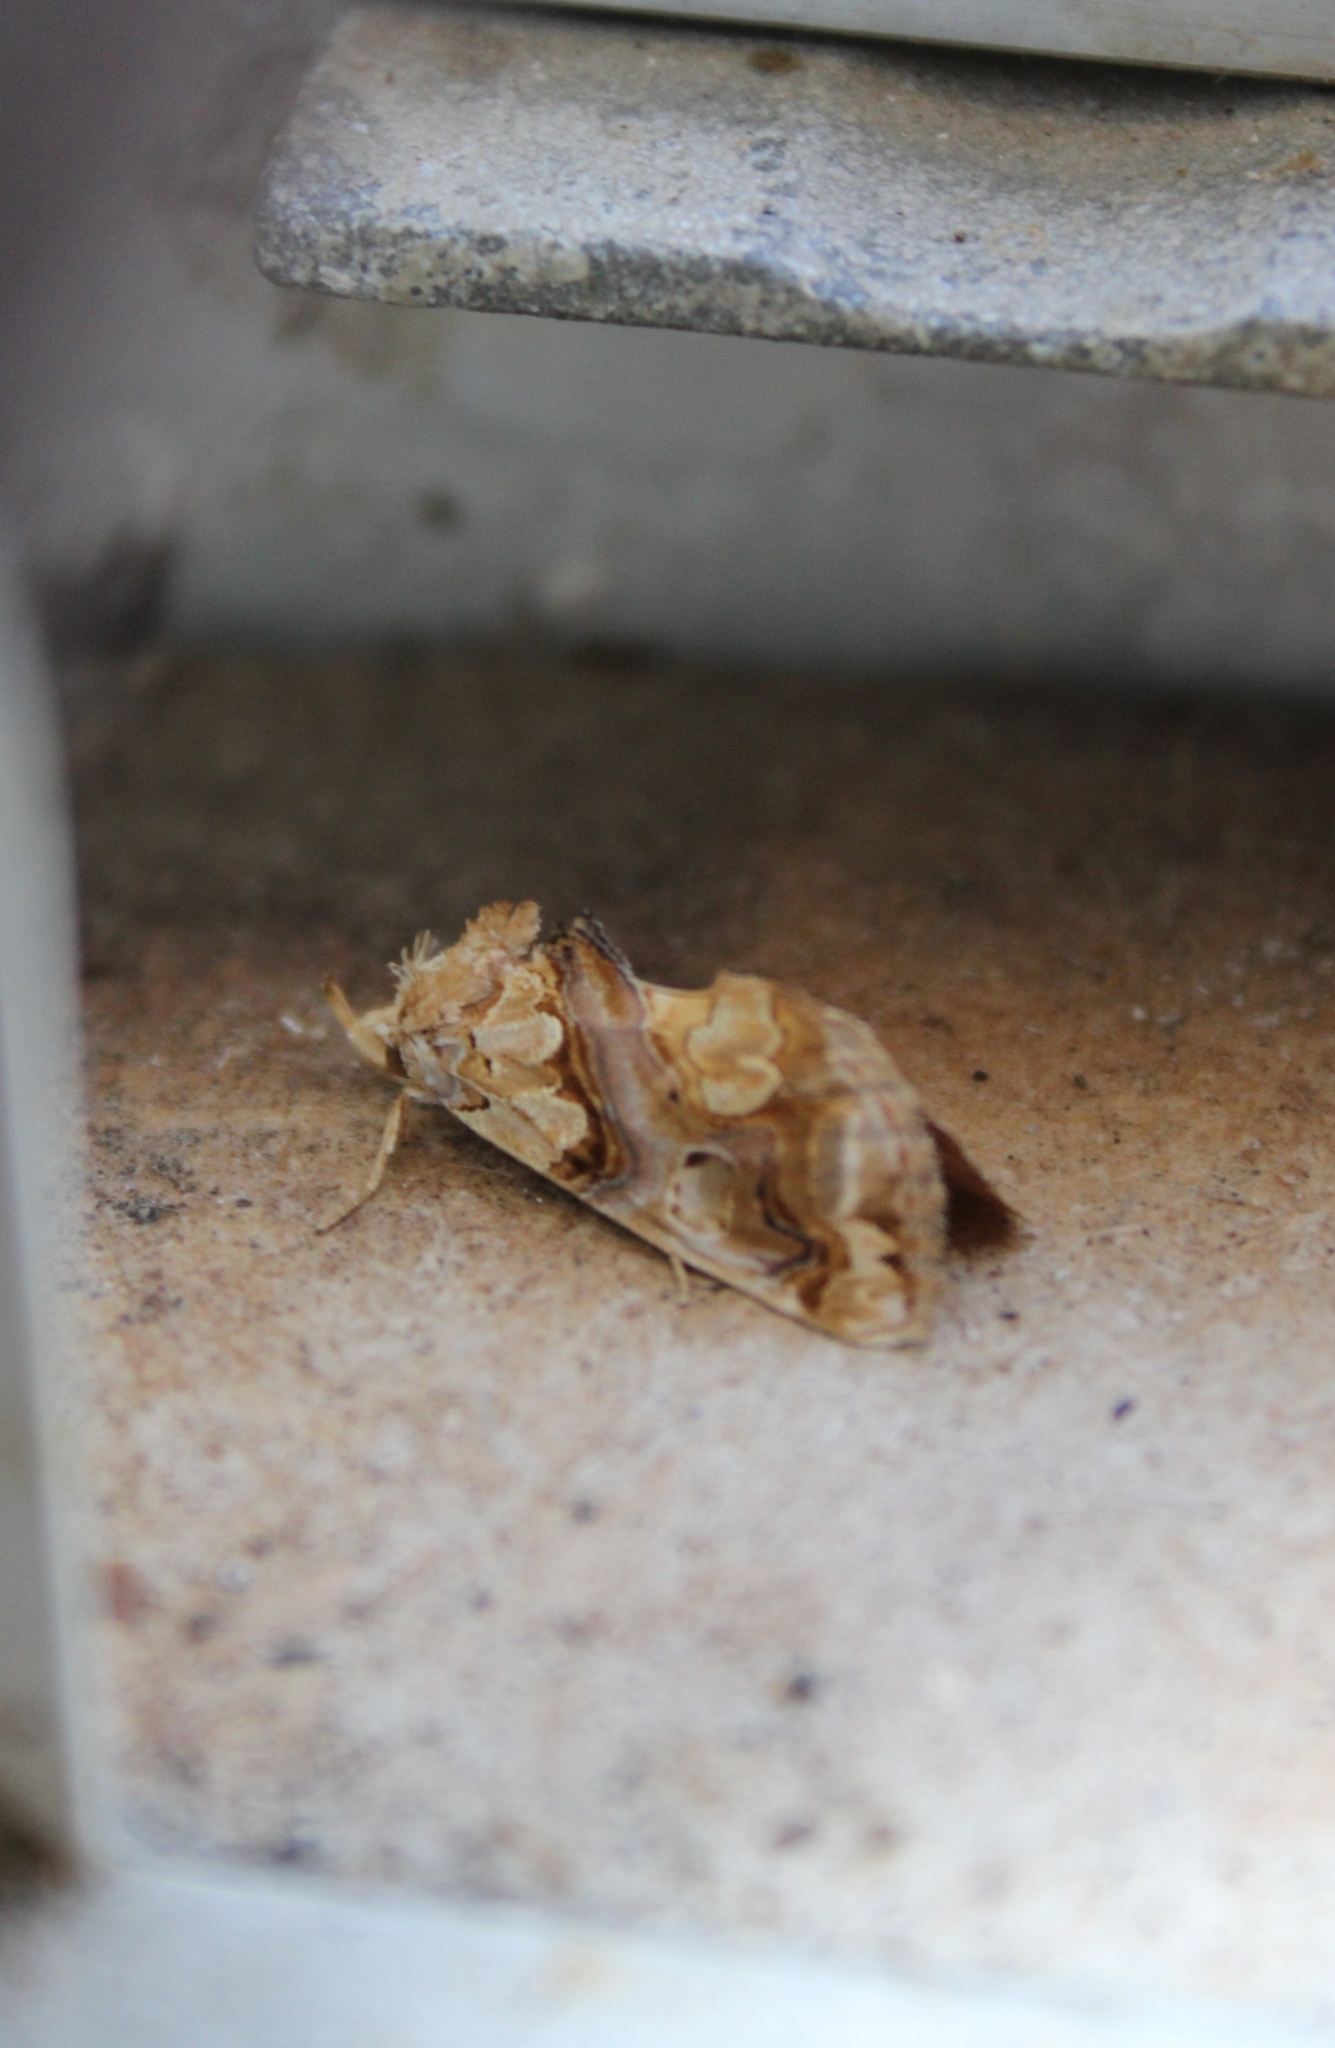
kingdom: Animalia
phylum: Arthropoda
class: Insecta
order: Lepidoptera
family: Erebidae
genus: Plusiodonta
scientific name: Plusiodonta compressipalpis
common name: Moonseed moth
